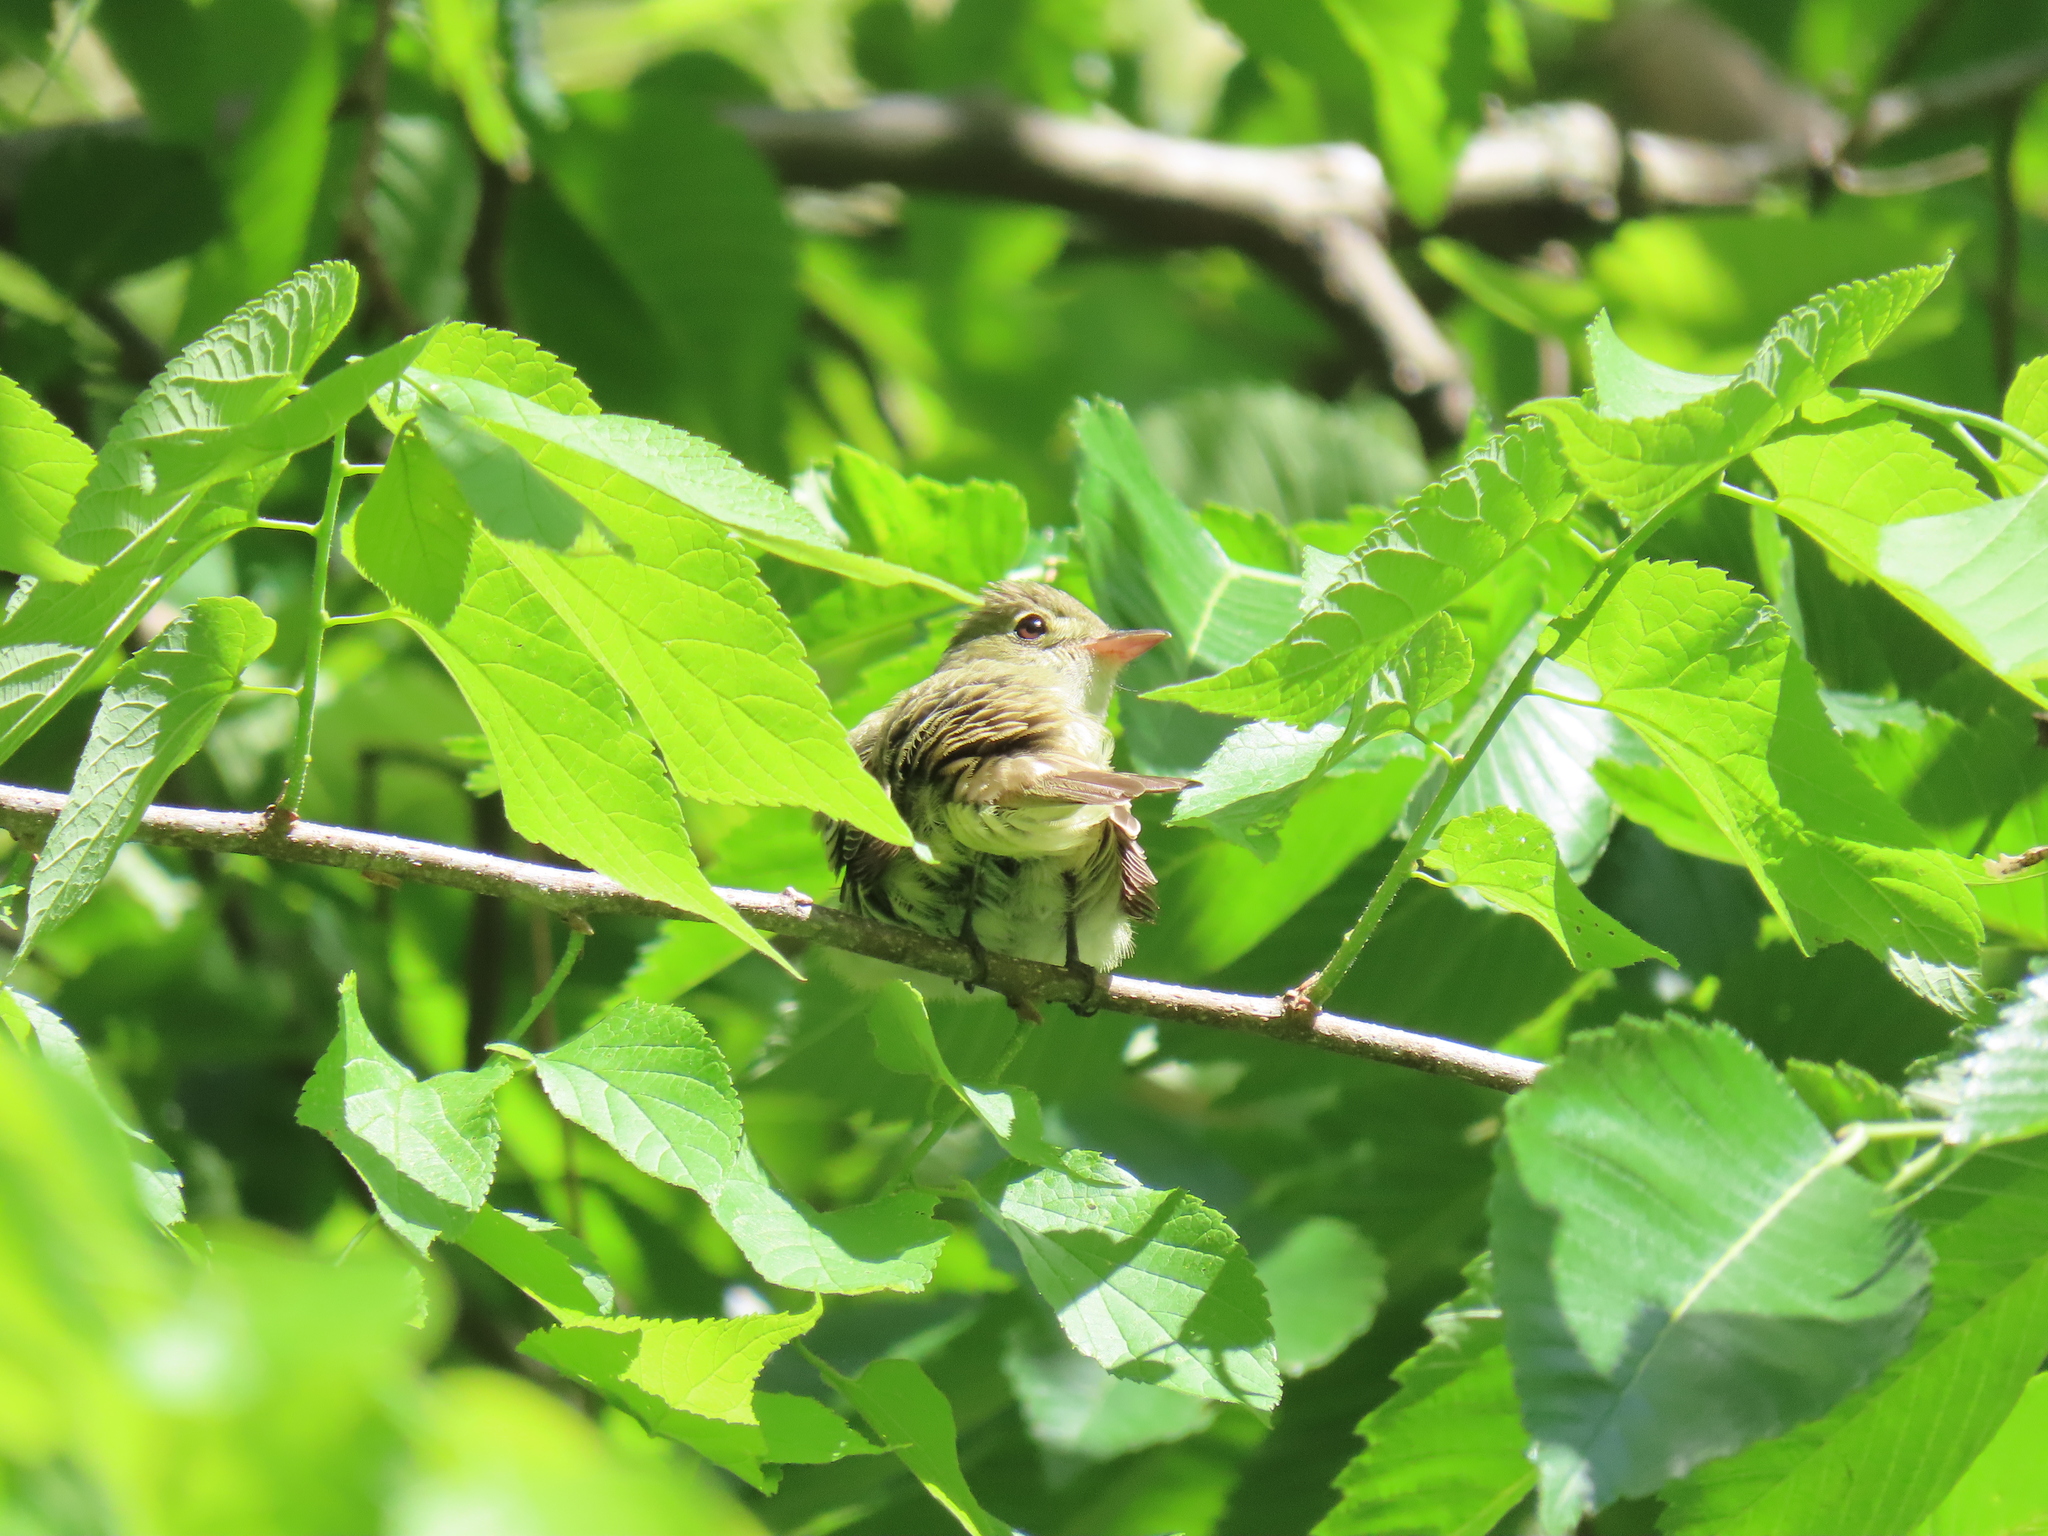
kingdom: Animalia
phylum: Chordata
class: Aves
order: Passeriformes
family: Tyrannidae
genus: Contopus
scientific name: Contopus virens
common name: Eastern wood-pewee
